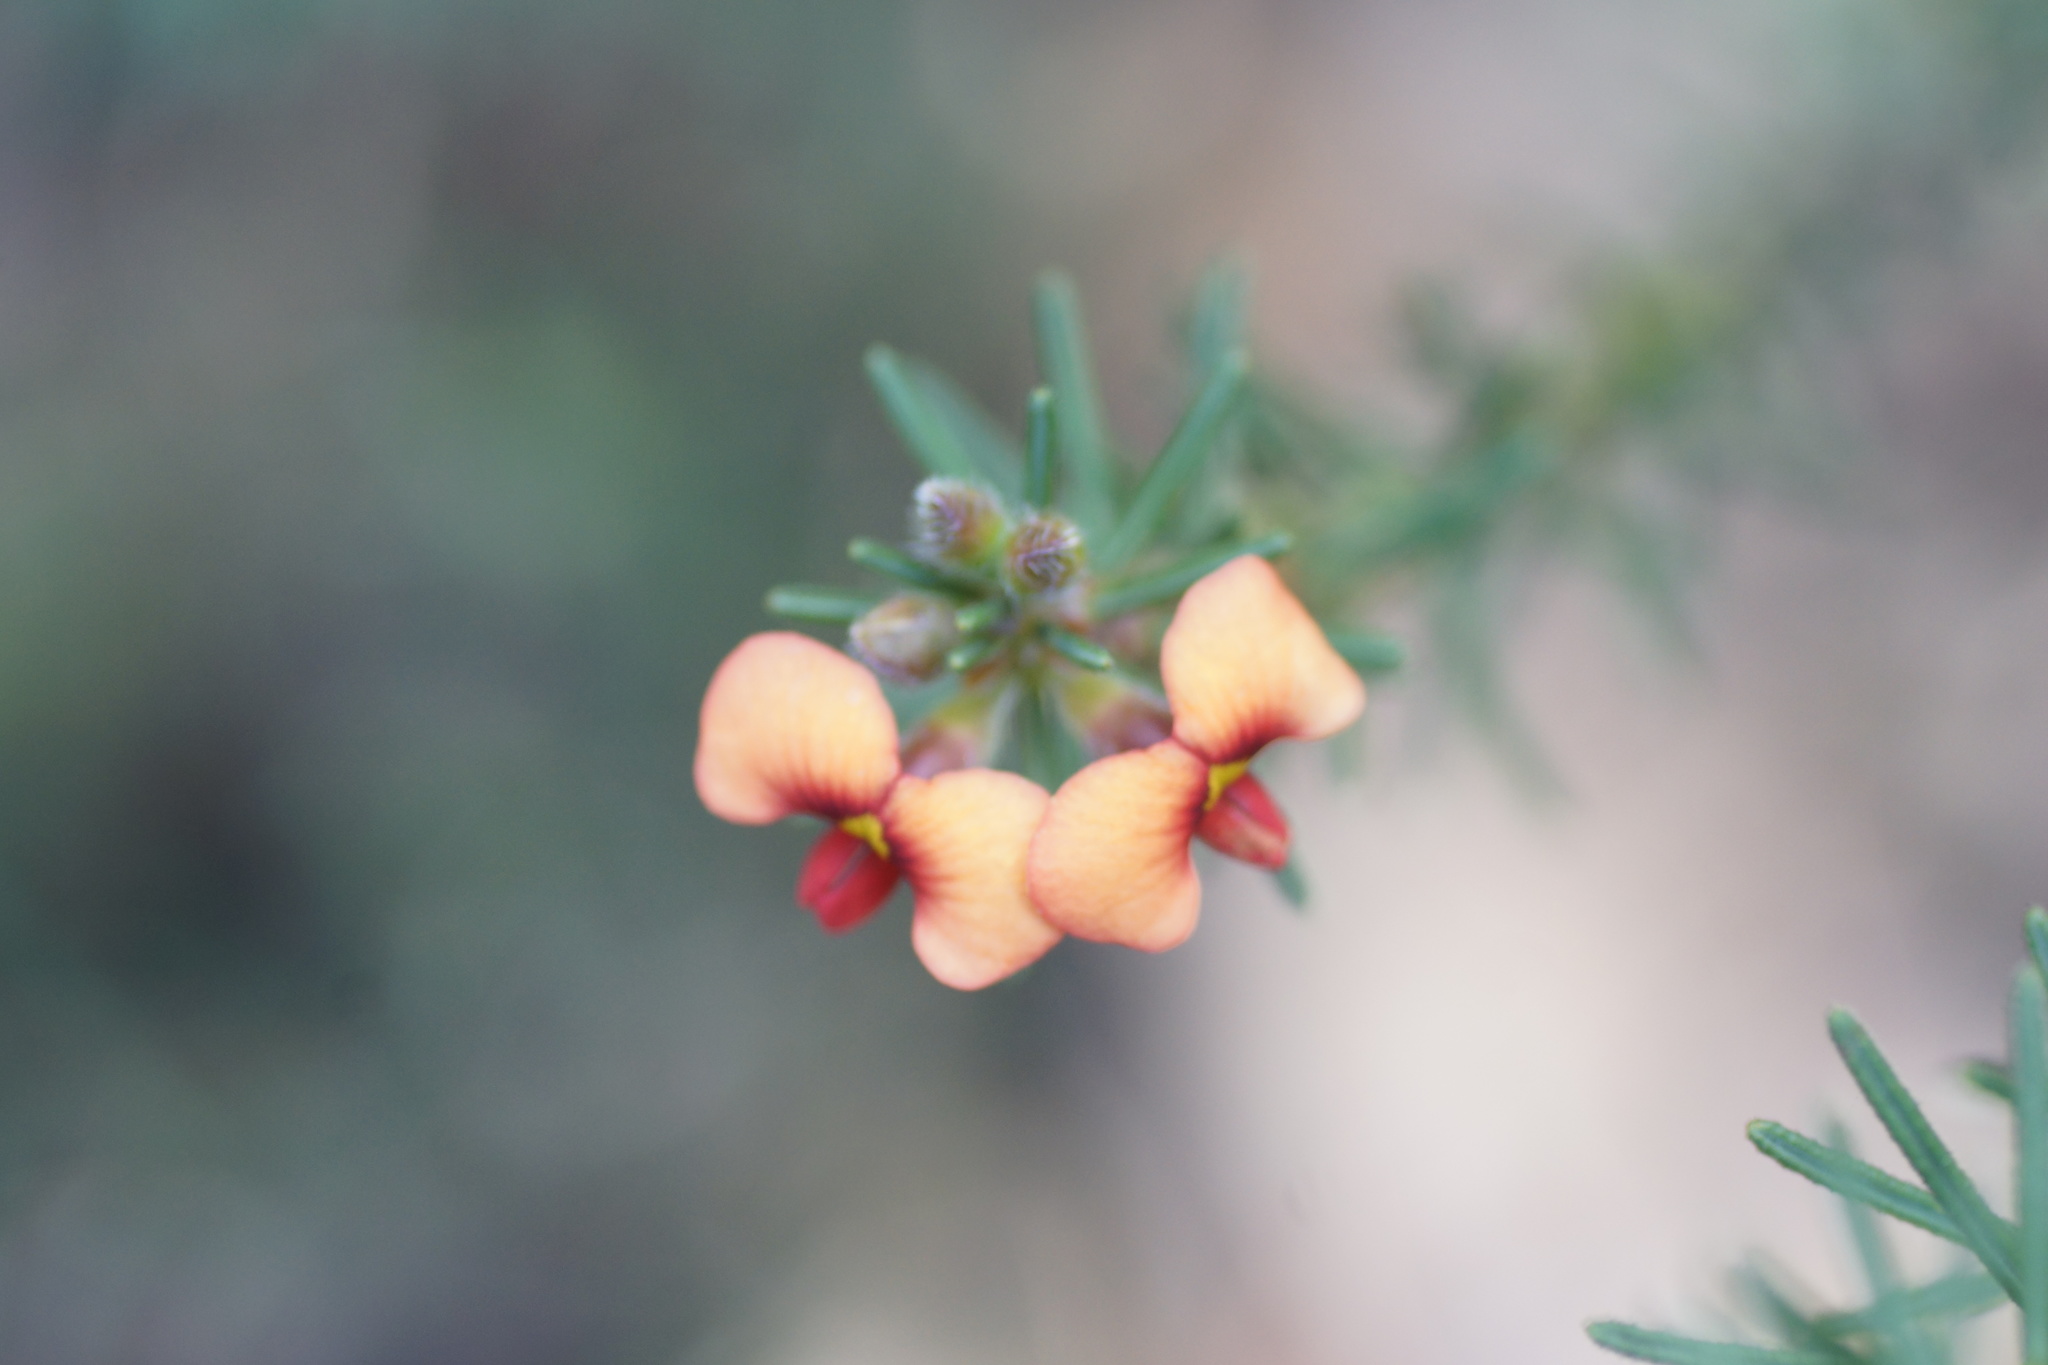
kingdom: Plantae
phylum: Tracheophyta
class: Magnoliopsida
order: Fabales
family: Fabaceae
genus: Dillwynia
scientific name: Dillwynia sericea
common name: Showy parrot-pea
